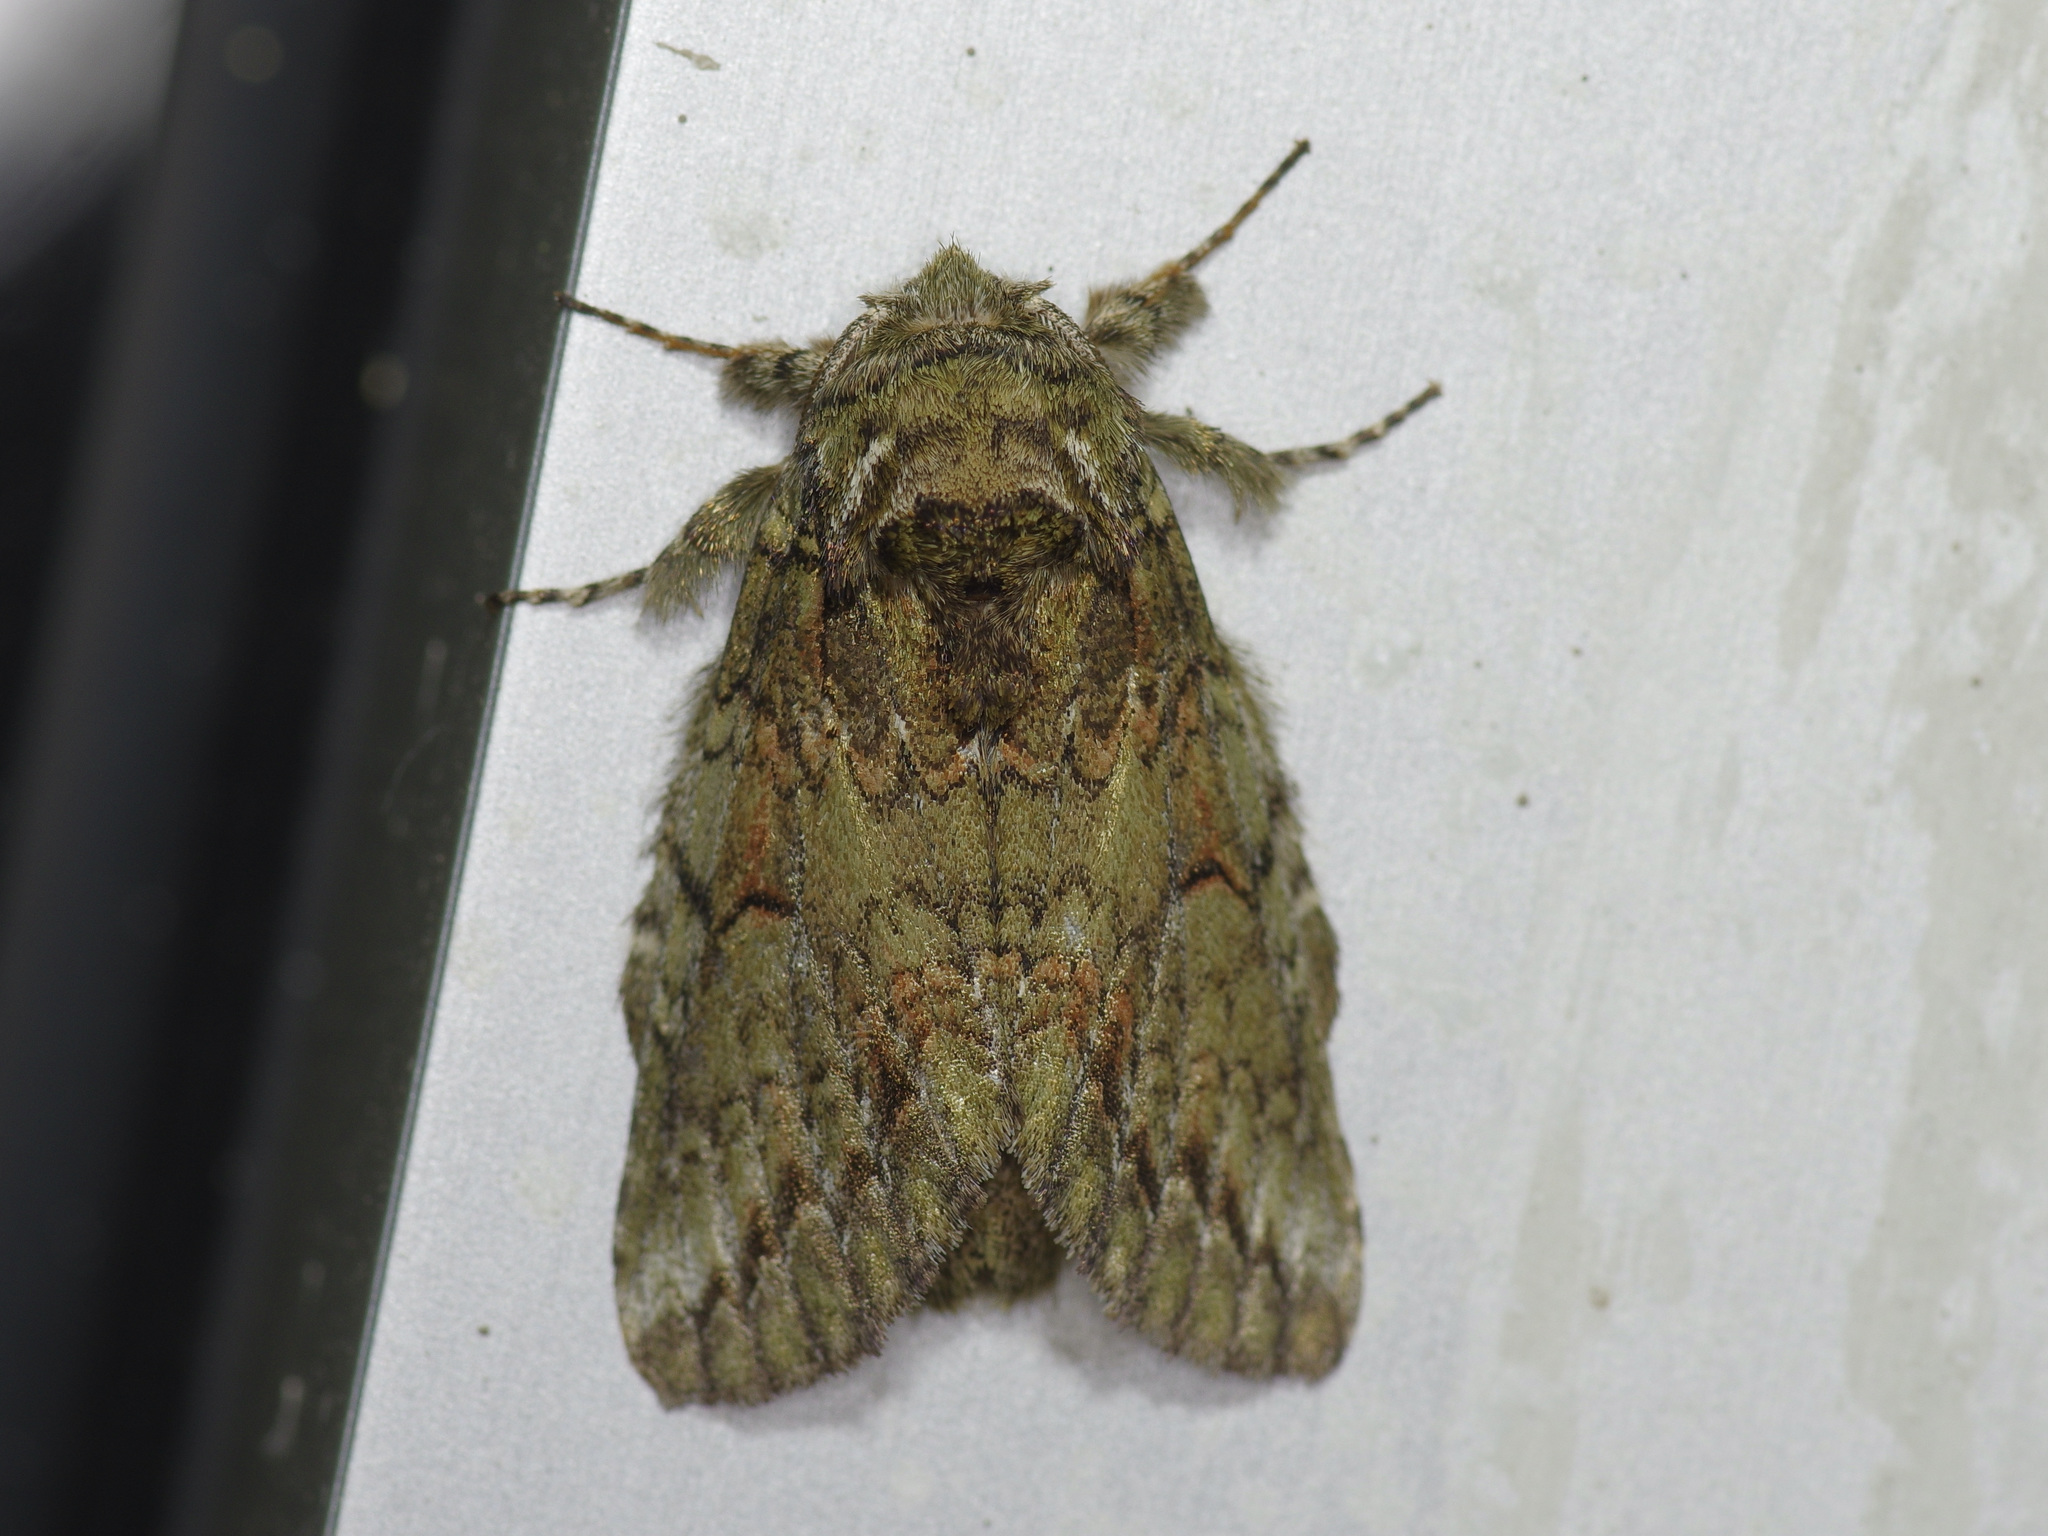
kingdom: Animalia
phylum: Arthropoda
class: Insecta
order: Lepidoptera
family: Notodontidae
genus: Heterocampa
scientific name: Heterocampa
